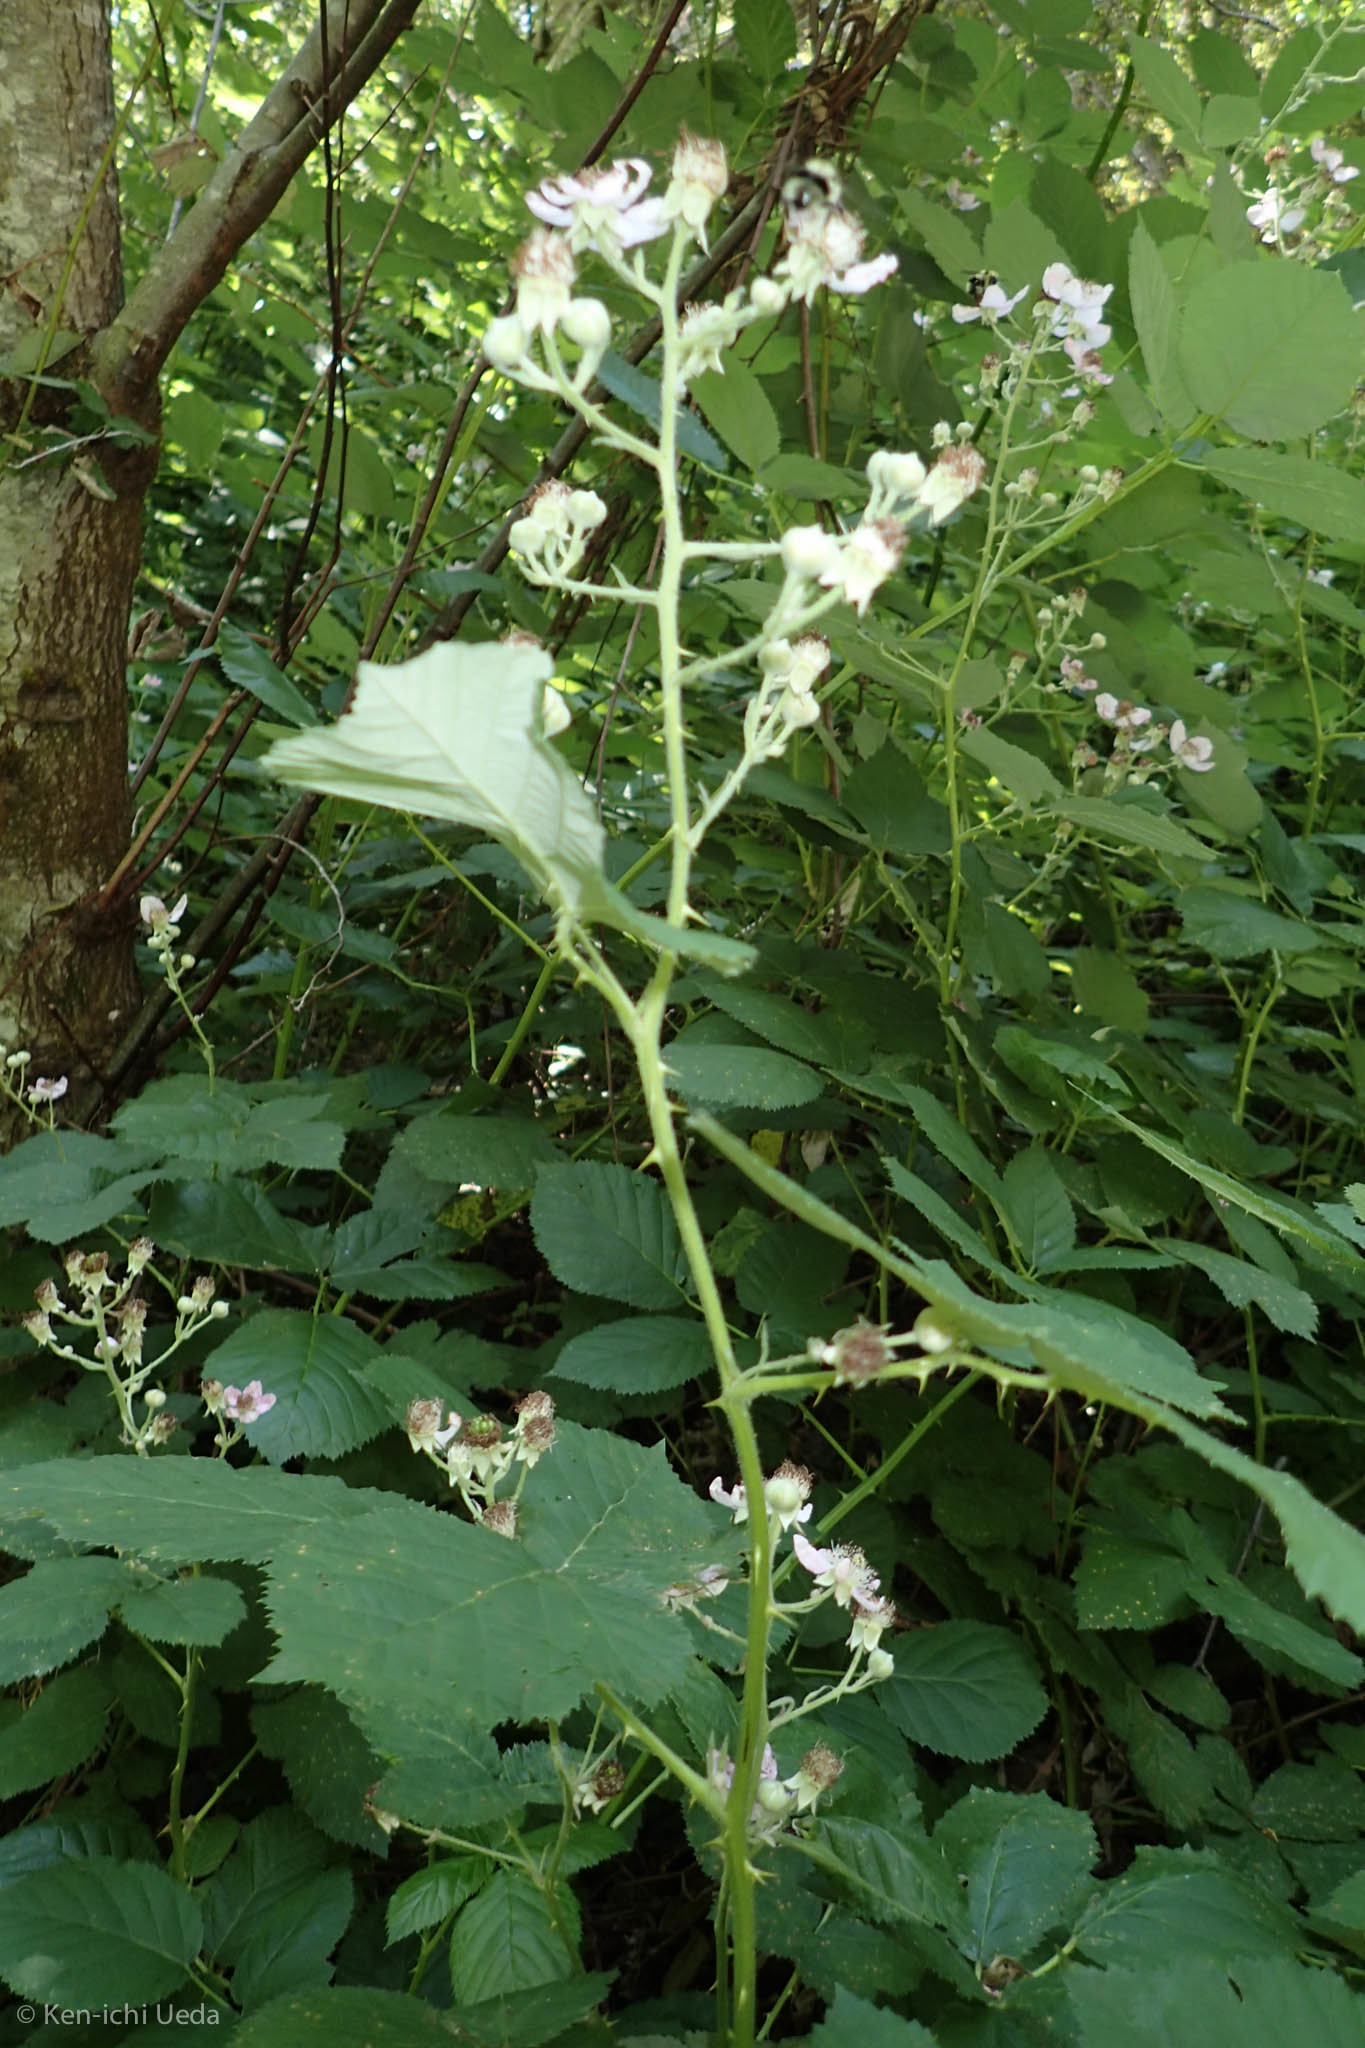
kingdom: Plantae
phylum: Tracheophyta
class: Magnoliopsida
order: Rosales
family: Rosaceae
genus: Rubus
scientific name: Rubus armeniacus
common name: Himalayan blackberry
